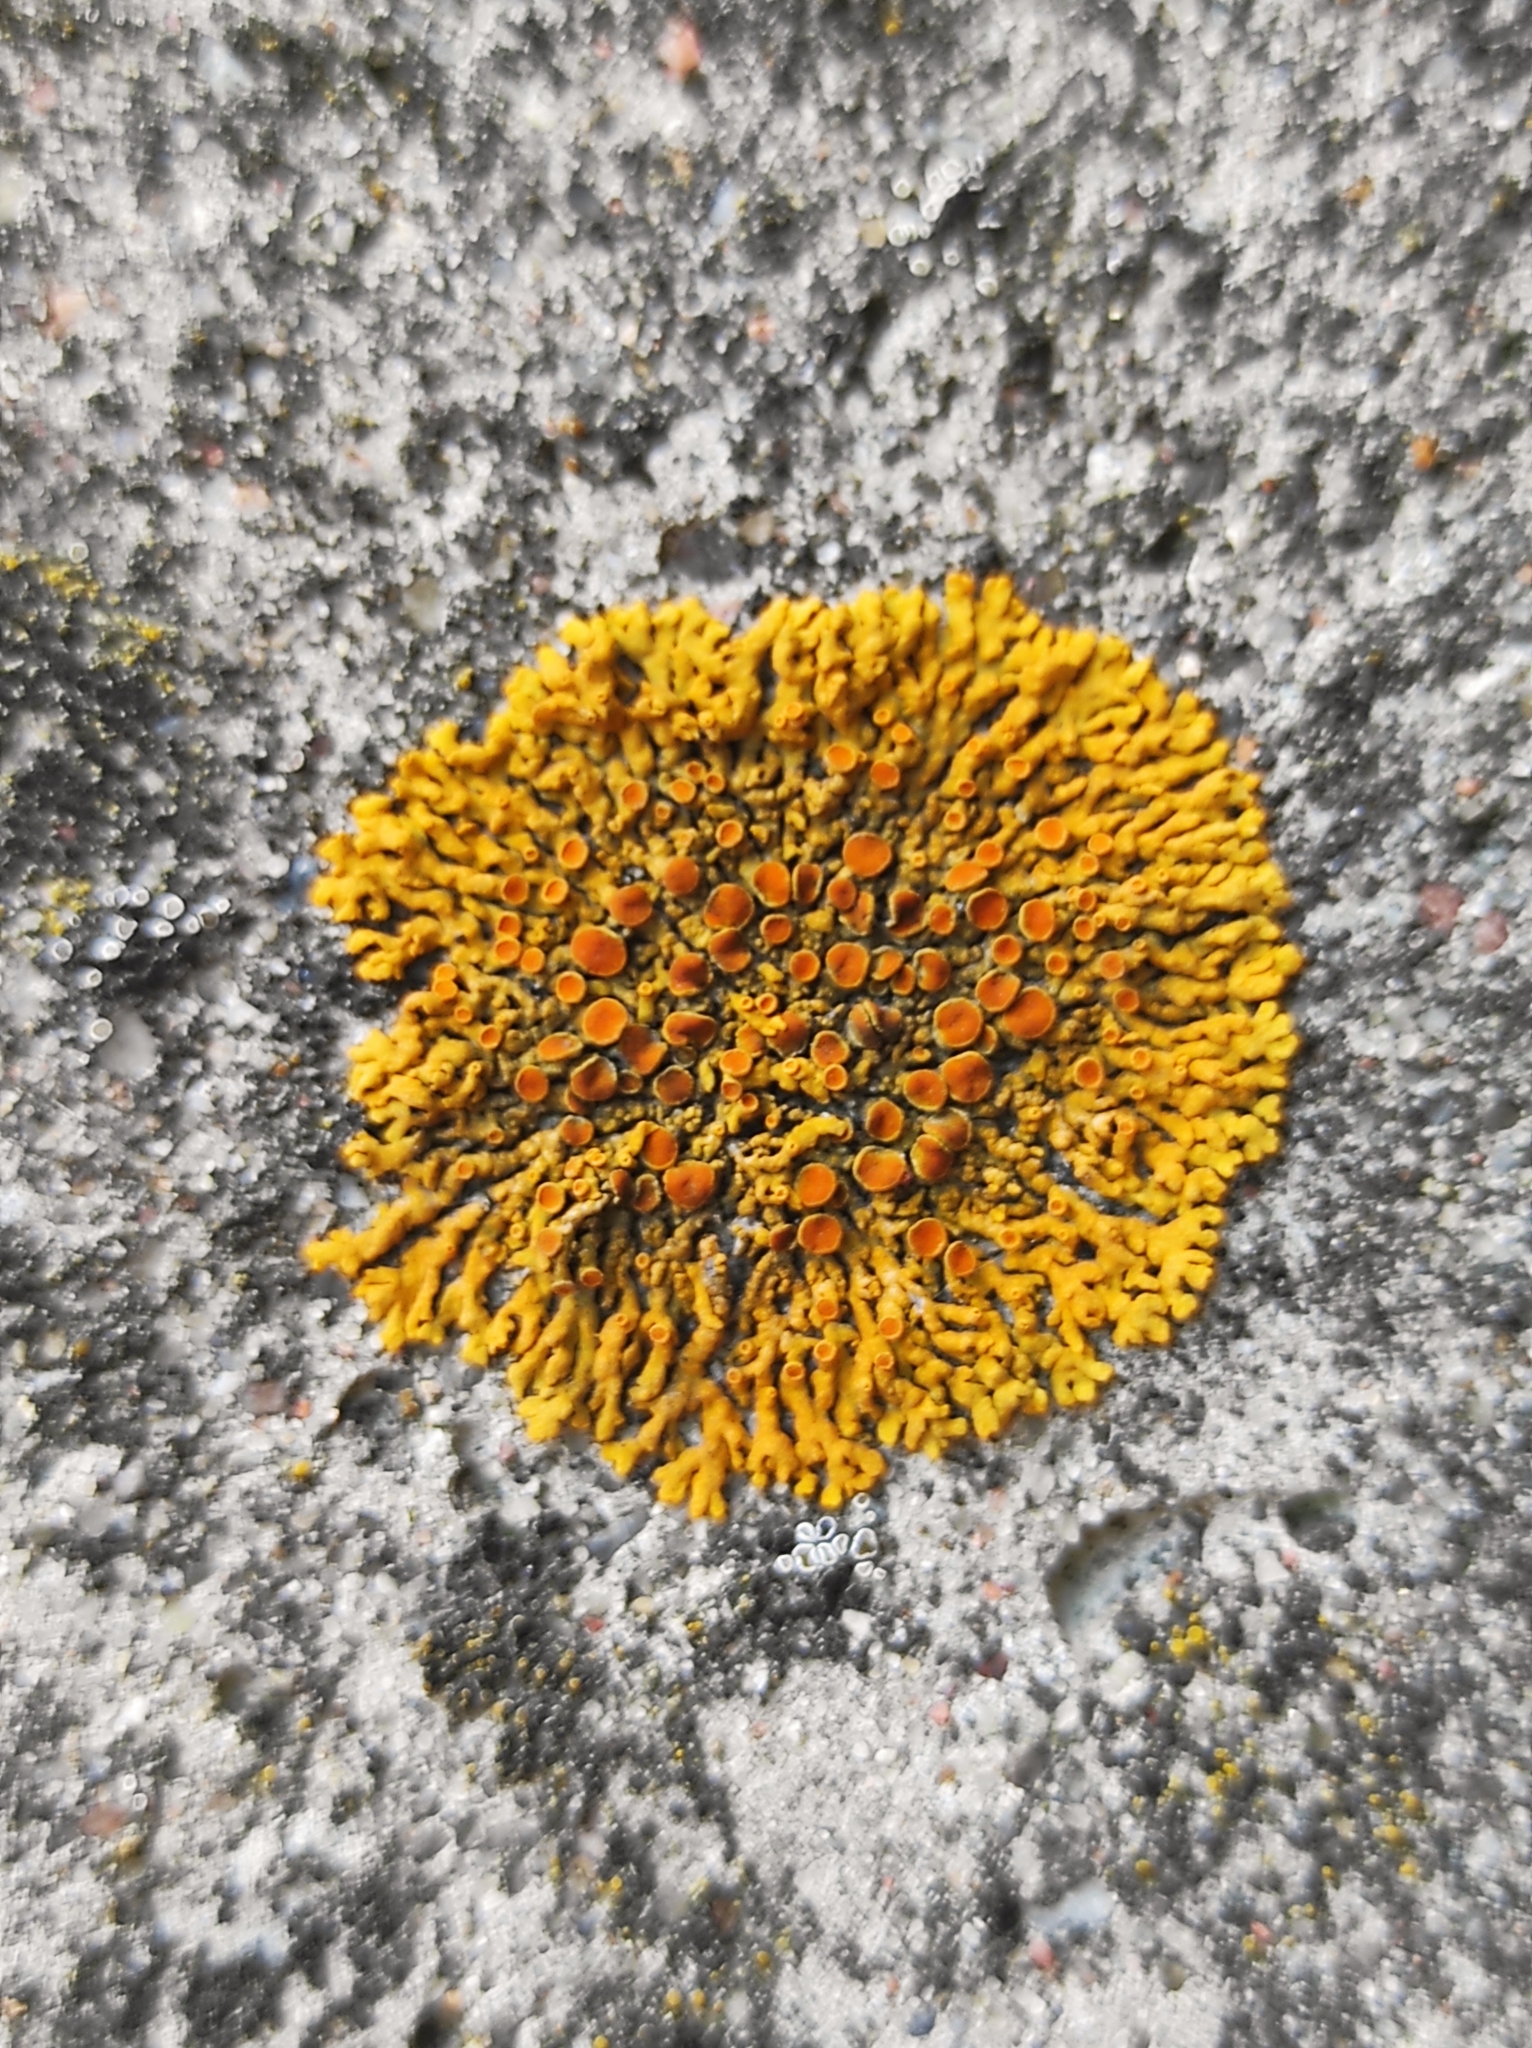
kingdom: Fungi
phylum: Ascomycota
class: Lecanoromycetes
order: Teloschistales
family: Teloschistaceae
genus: Xanthoria
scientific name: Xanthoria parietina
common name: Common orange lichen
